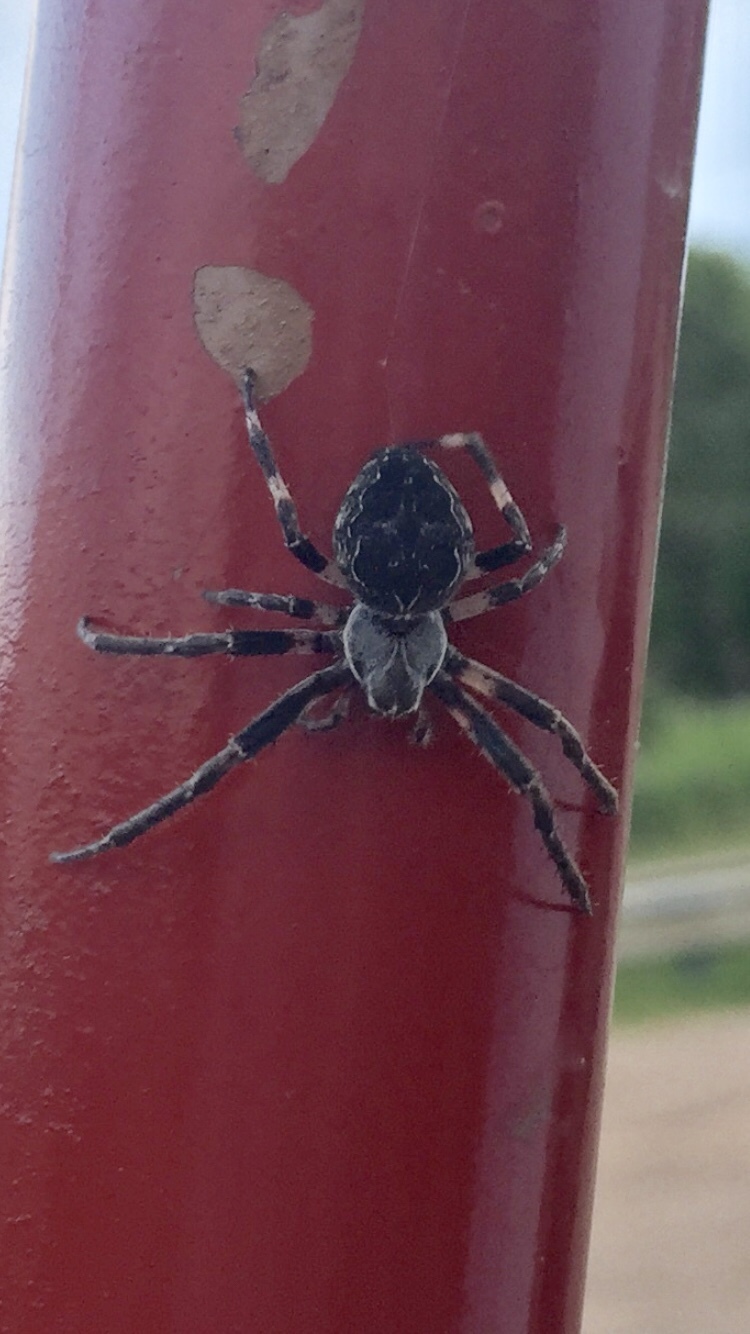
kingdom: Animalia
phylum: Arthropoda
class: Arachnida
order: Araneae
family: Araneidae
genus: Larinioides
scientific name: Larinioides sclopetarius
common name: Bridge orbweaver
